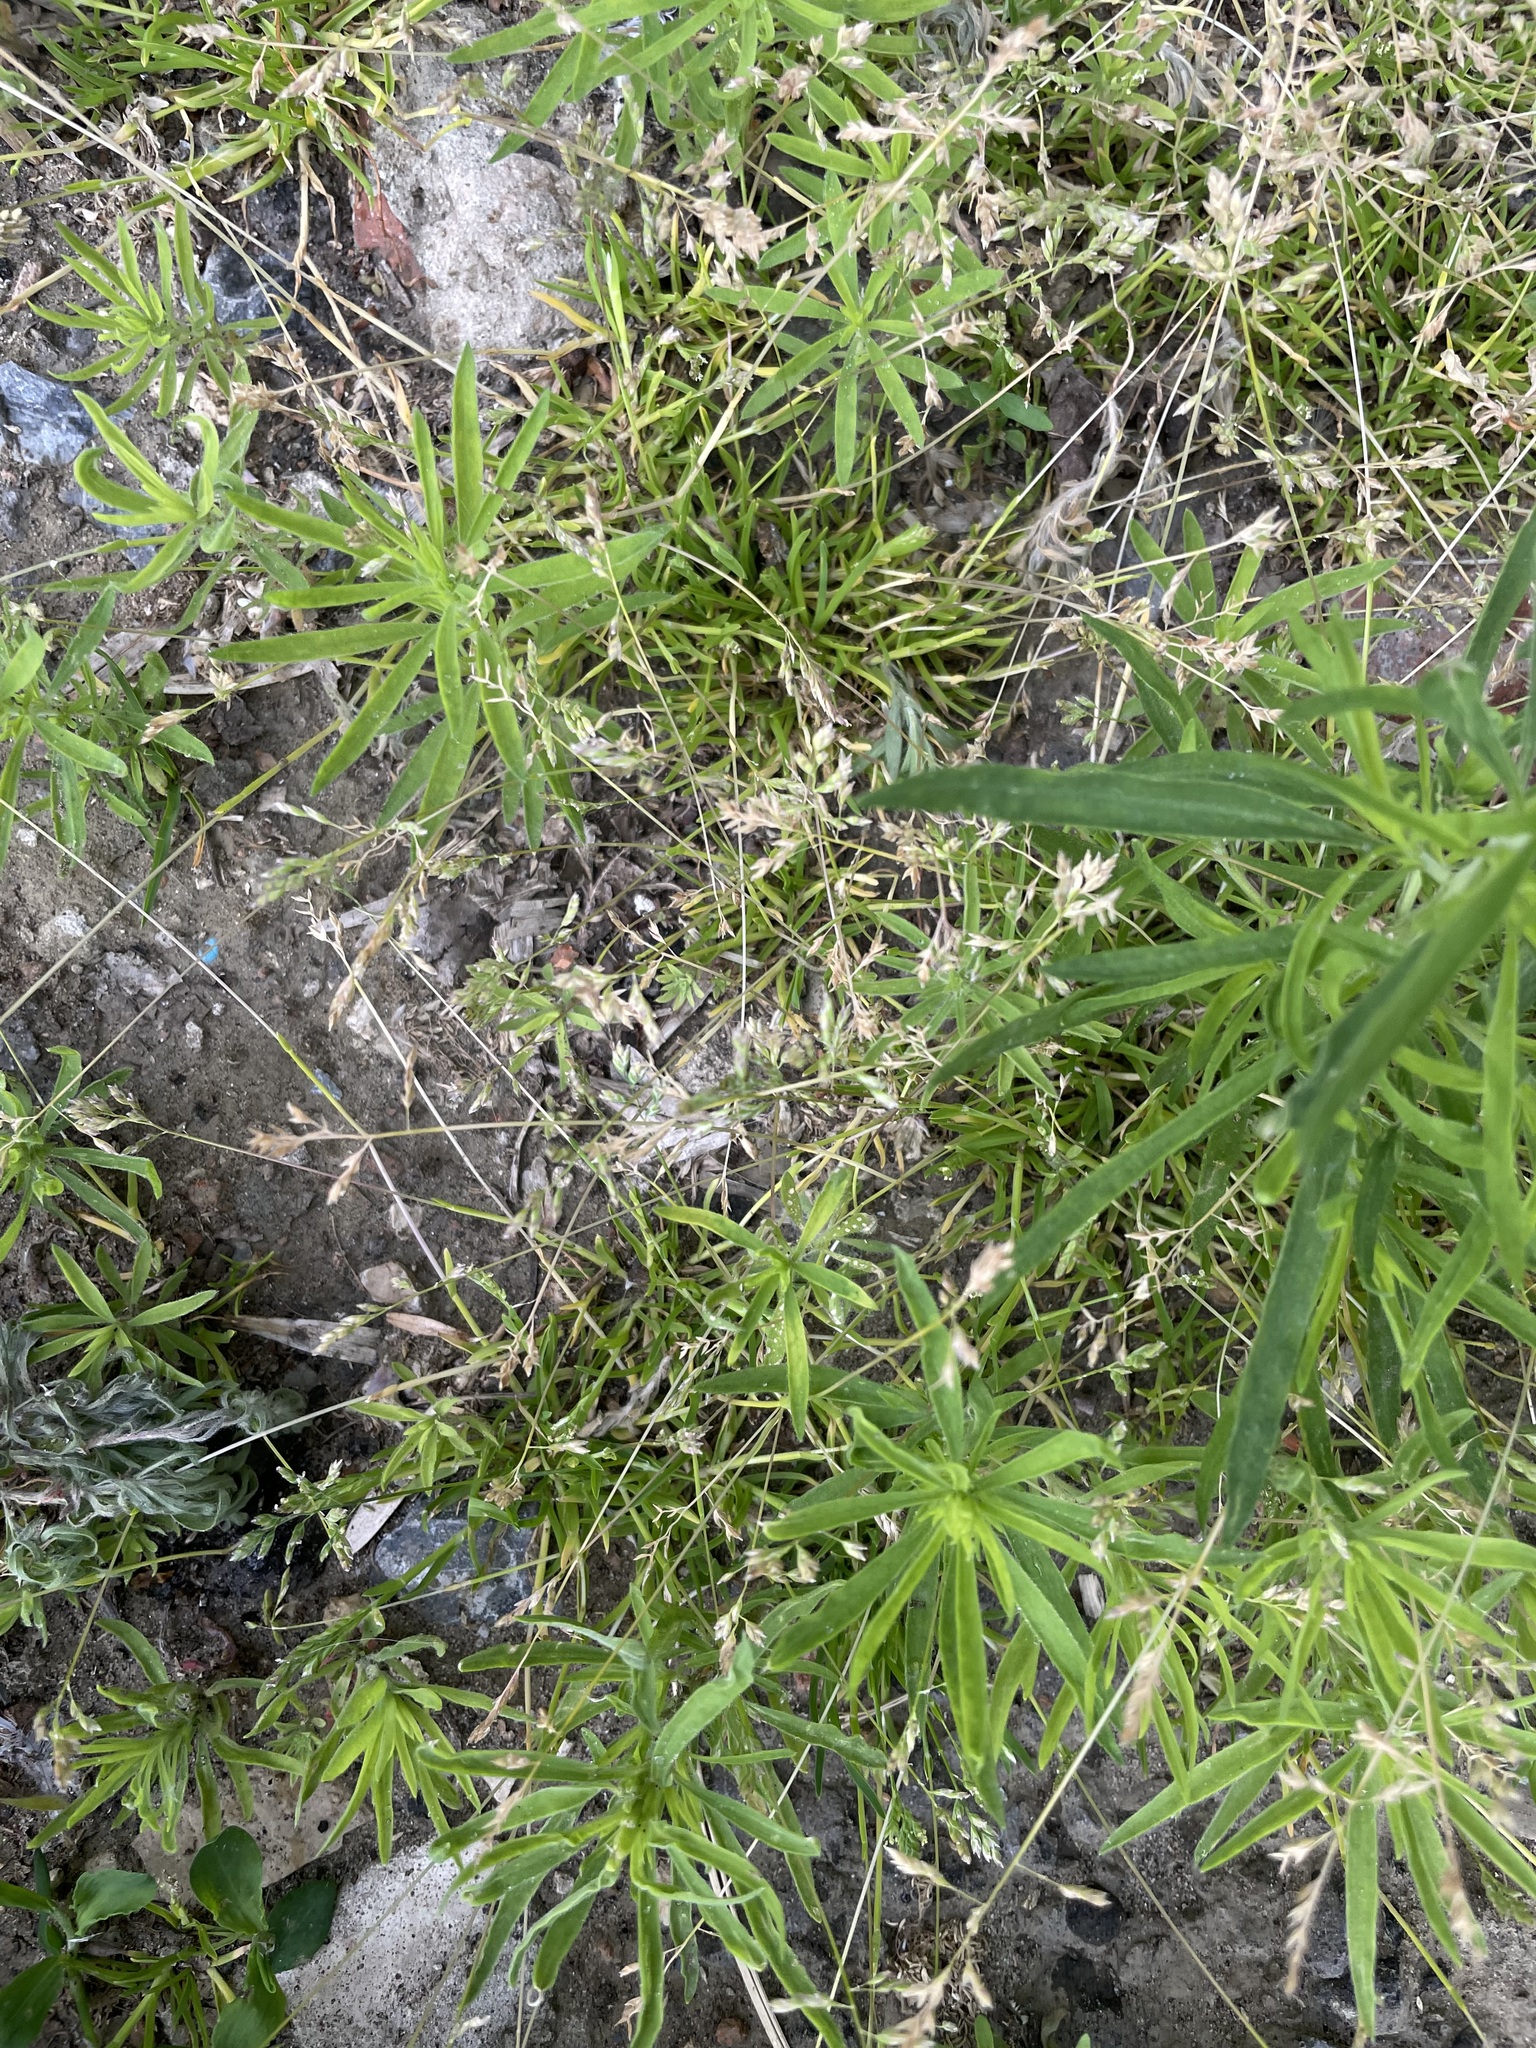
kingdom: Plantae
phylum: Tracheophyta
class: Liliopsida
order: Poales
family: Poaceae
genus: Poa
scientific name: Poa annua
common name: Annual bluegrass
